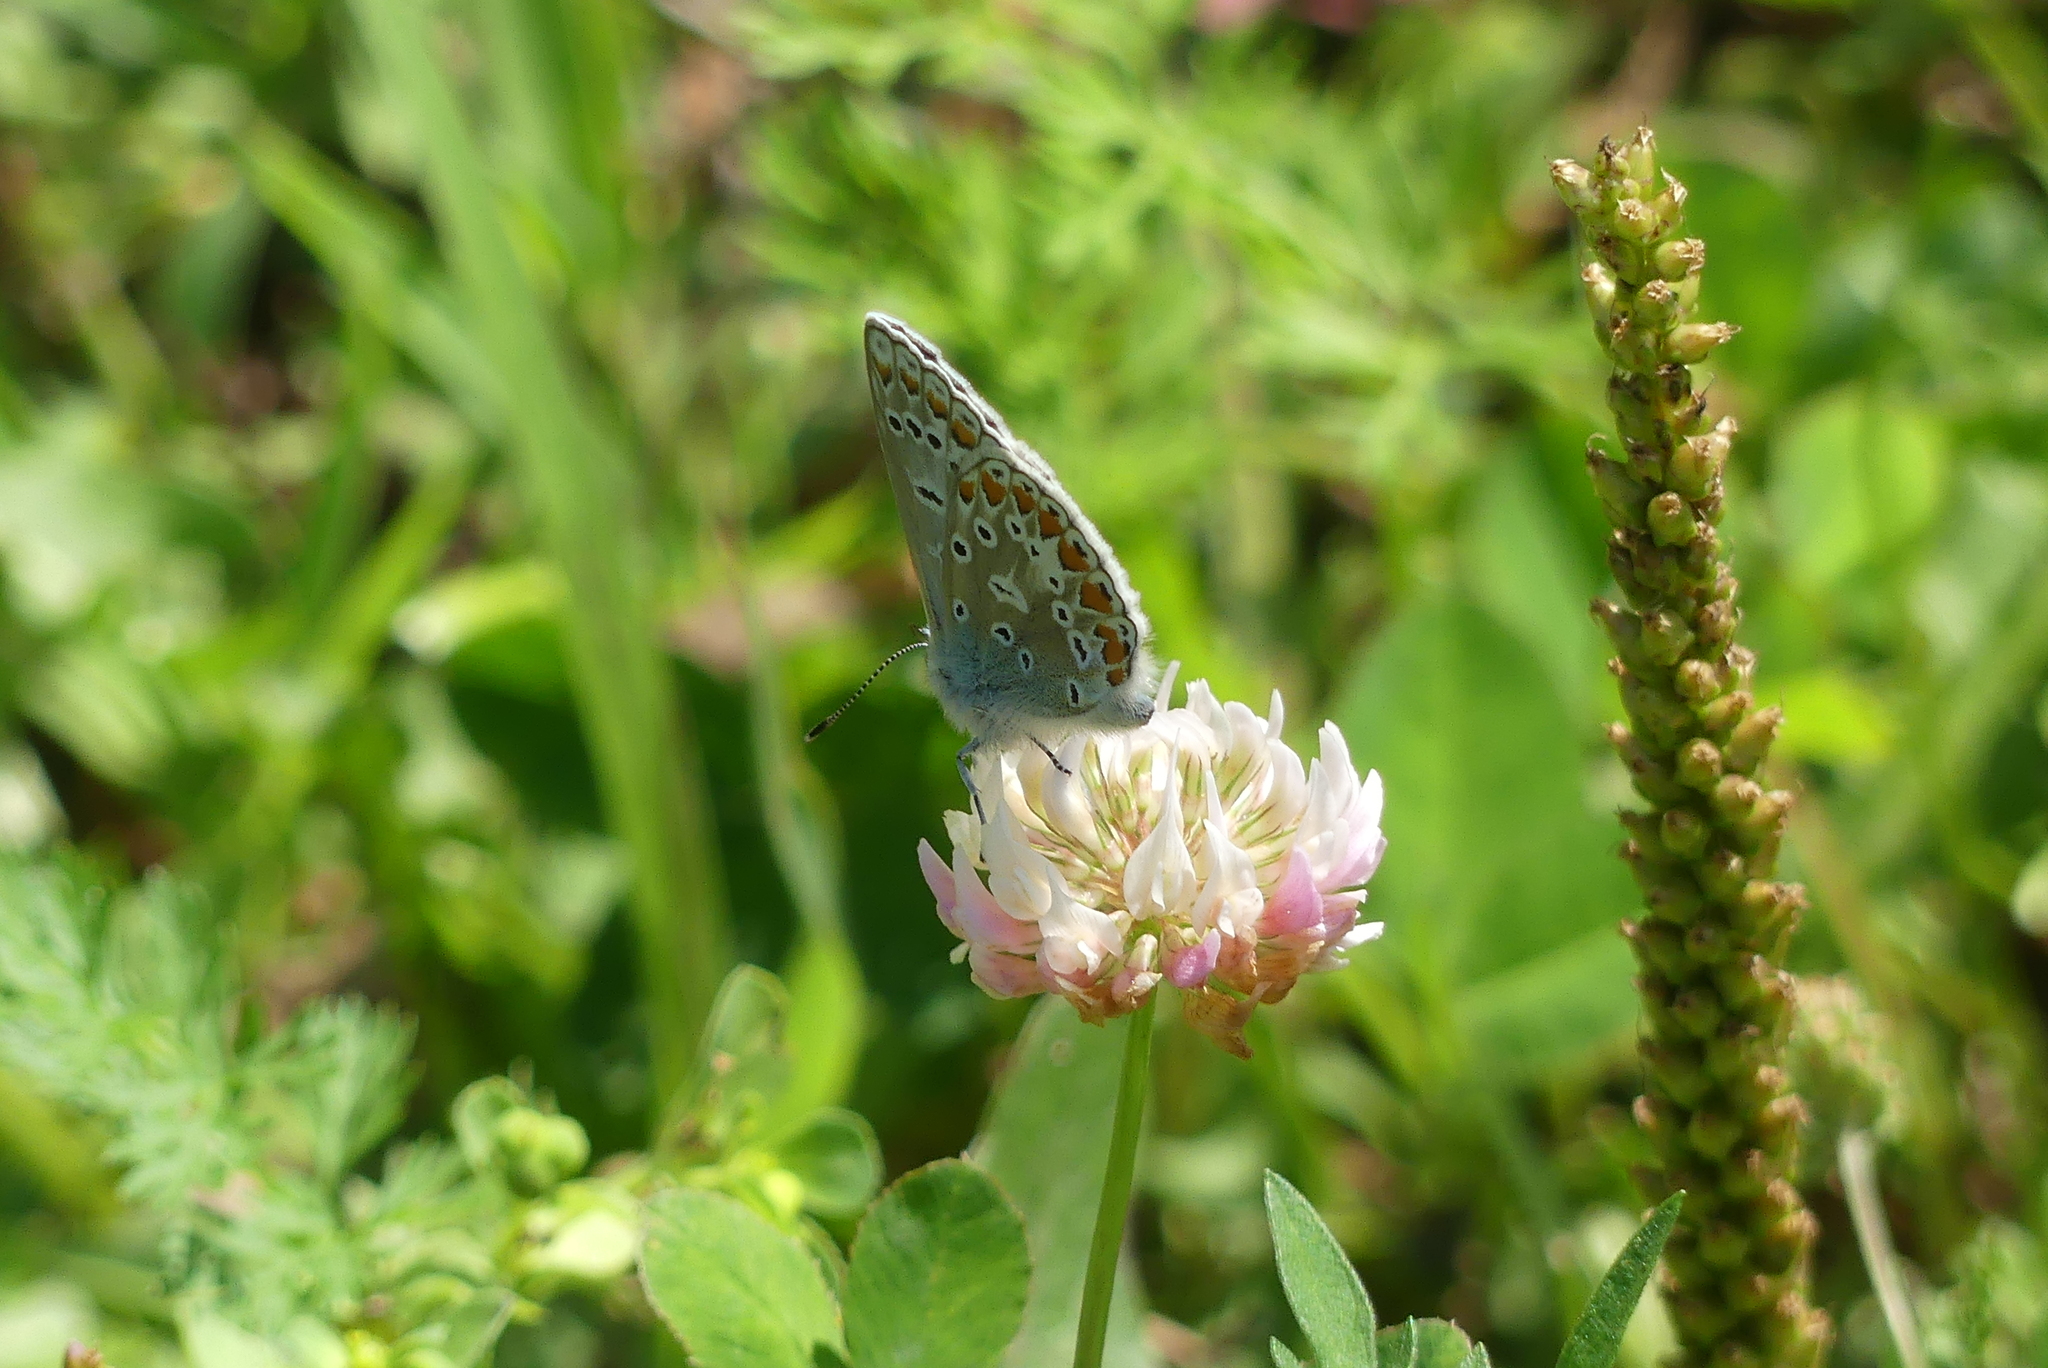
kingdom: Animalia
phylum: Arthropoda
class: Insecta
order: Lepidoptera
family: Lycaenidae
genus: Polyommatus
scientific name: Polyommatus icarus
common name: Common blue
